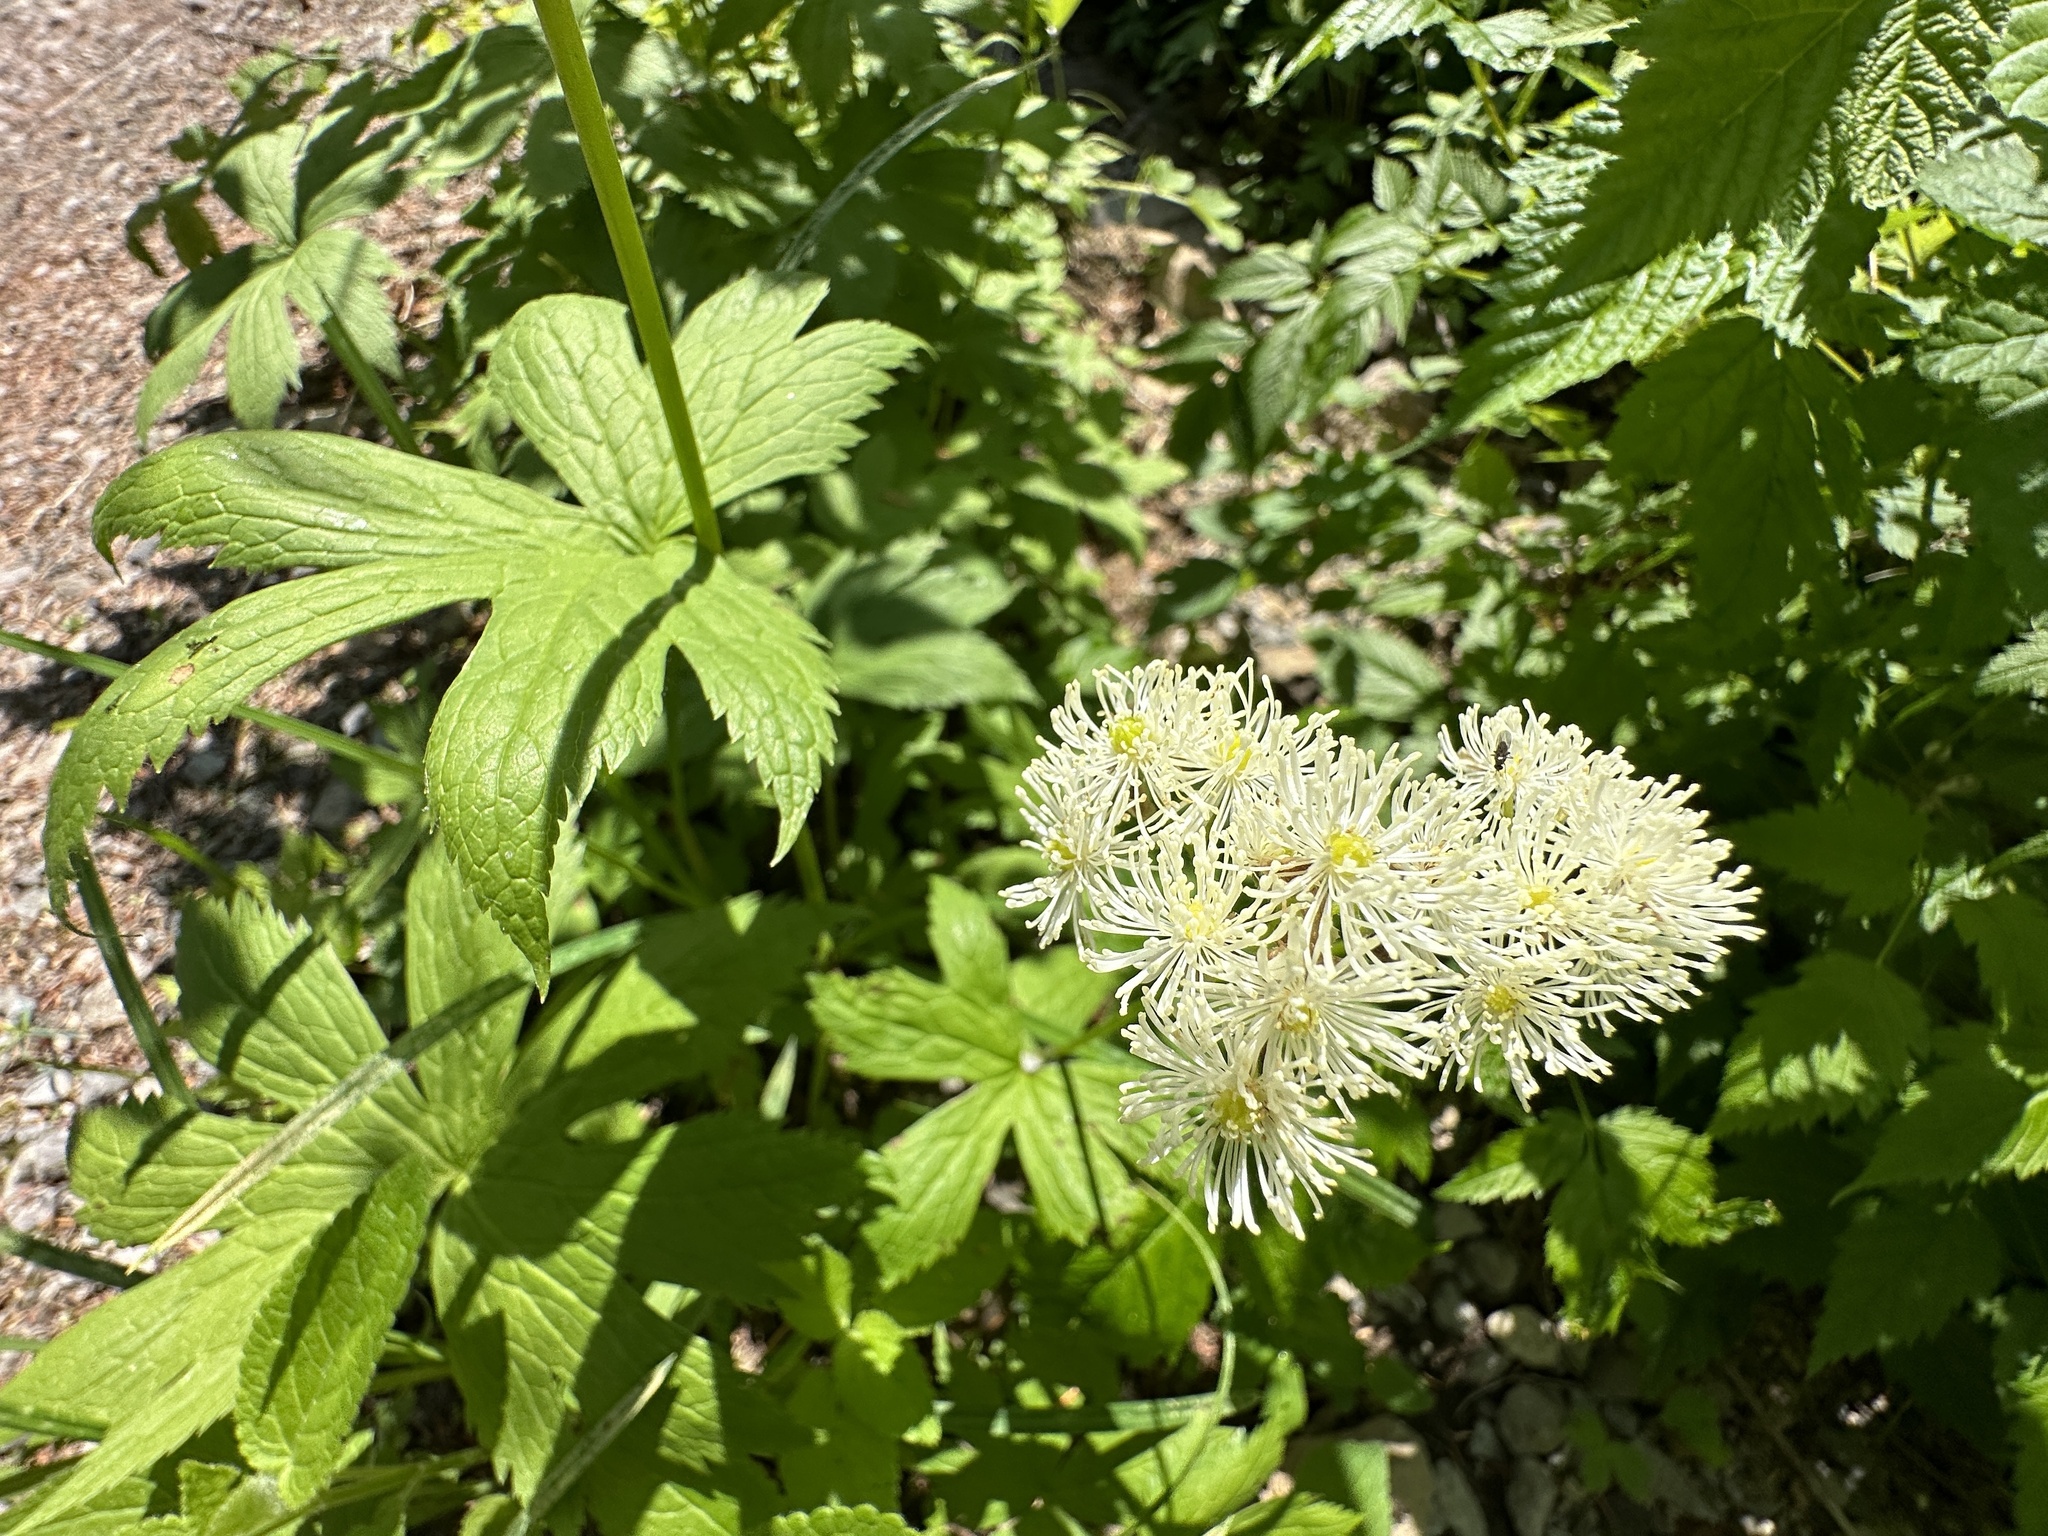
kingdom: Plantae
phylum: Tracheophyta
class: Magnoliopsida
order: Ranunculales
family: Ranunculaceae
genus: Trautvetteria
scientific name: Trautvetteria carolinensis
